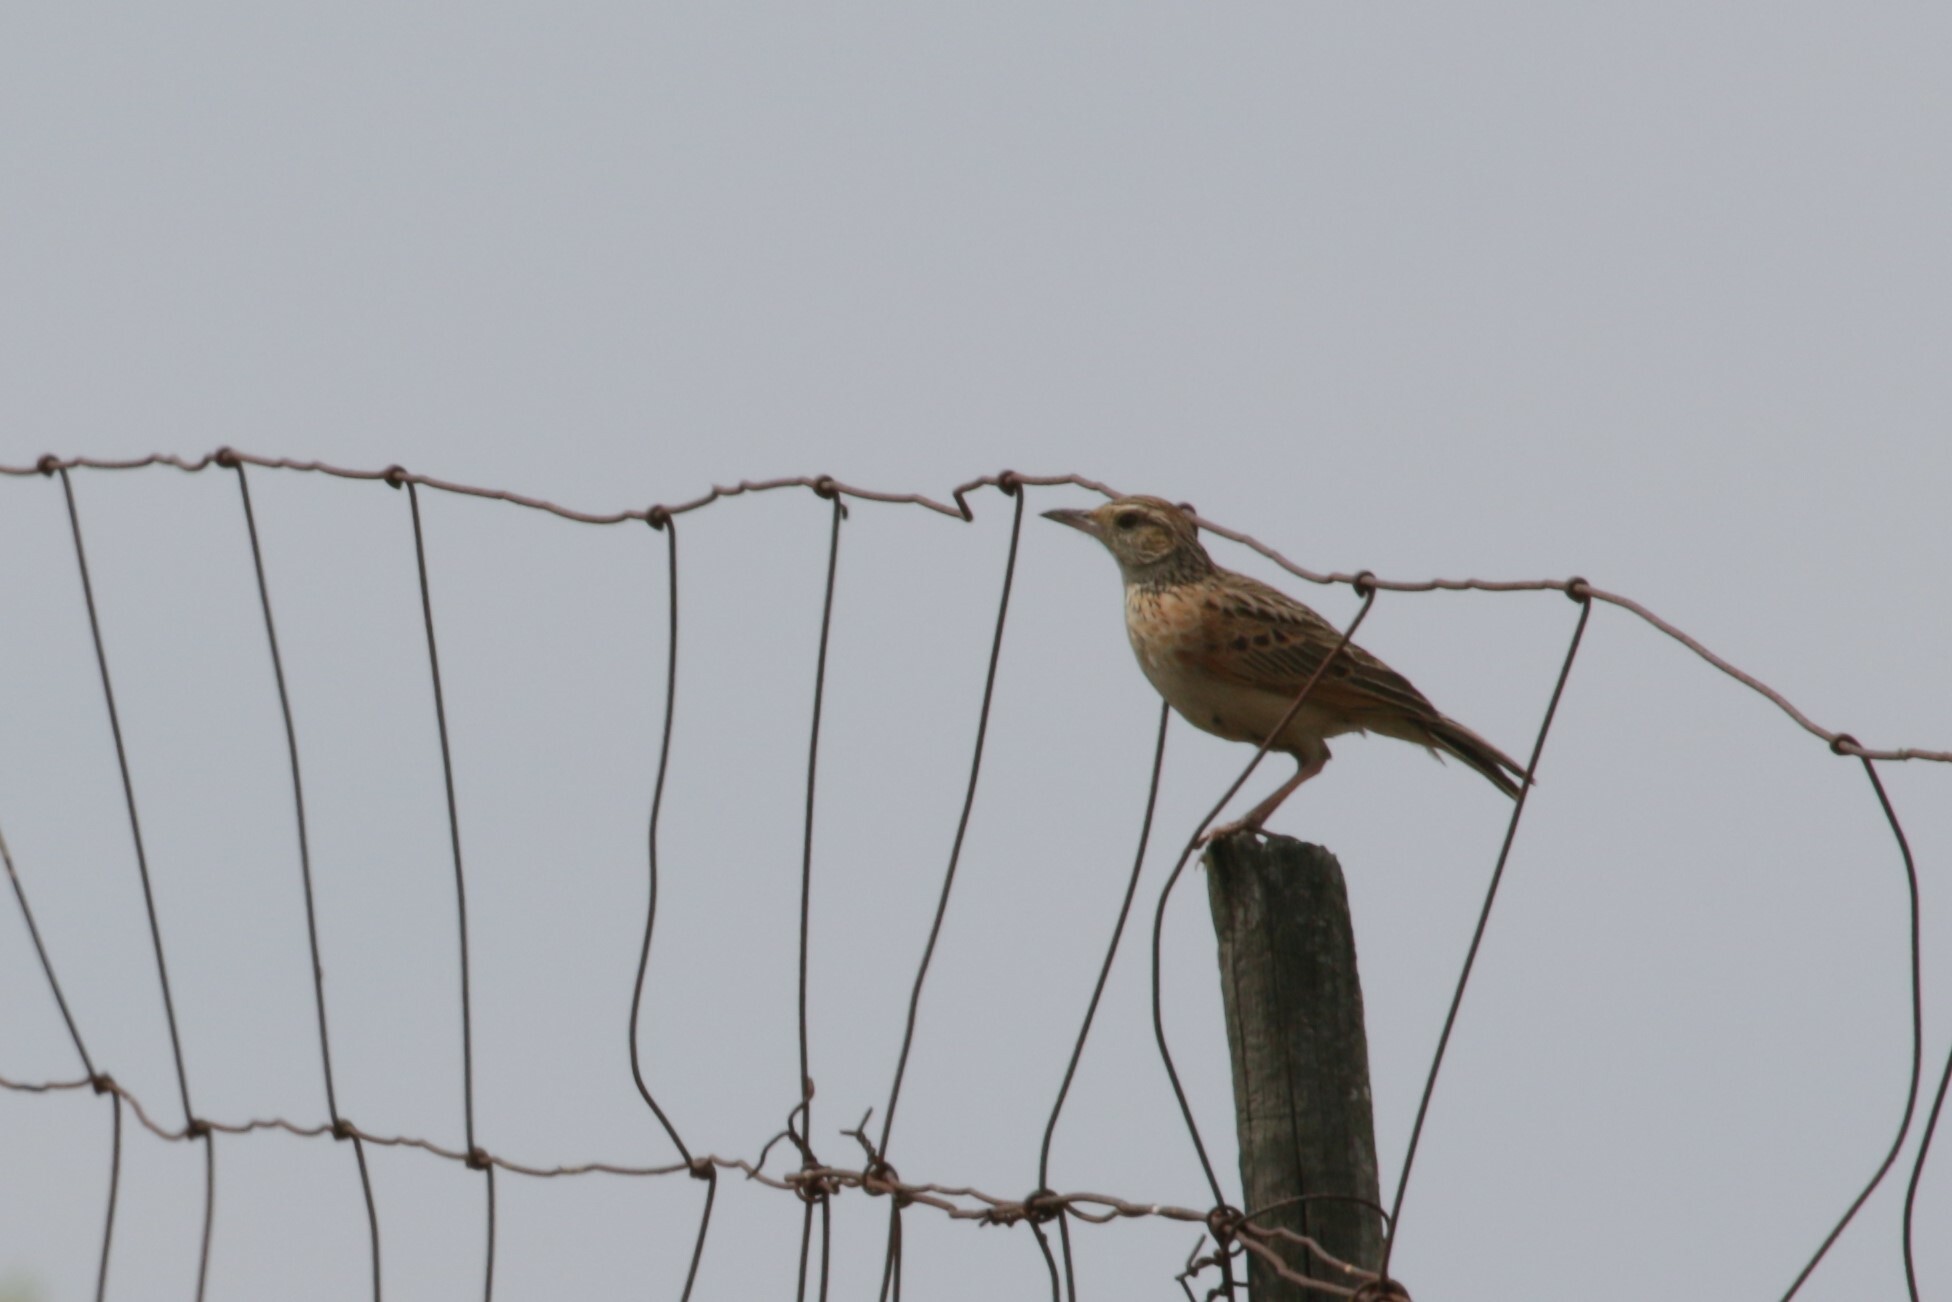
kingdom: Animalia
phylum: Chordata
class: Aves
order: Passeriformes
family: Alaudidae
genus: Mirafra
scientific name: Mirafra africana
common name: Rufous-naped lark
